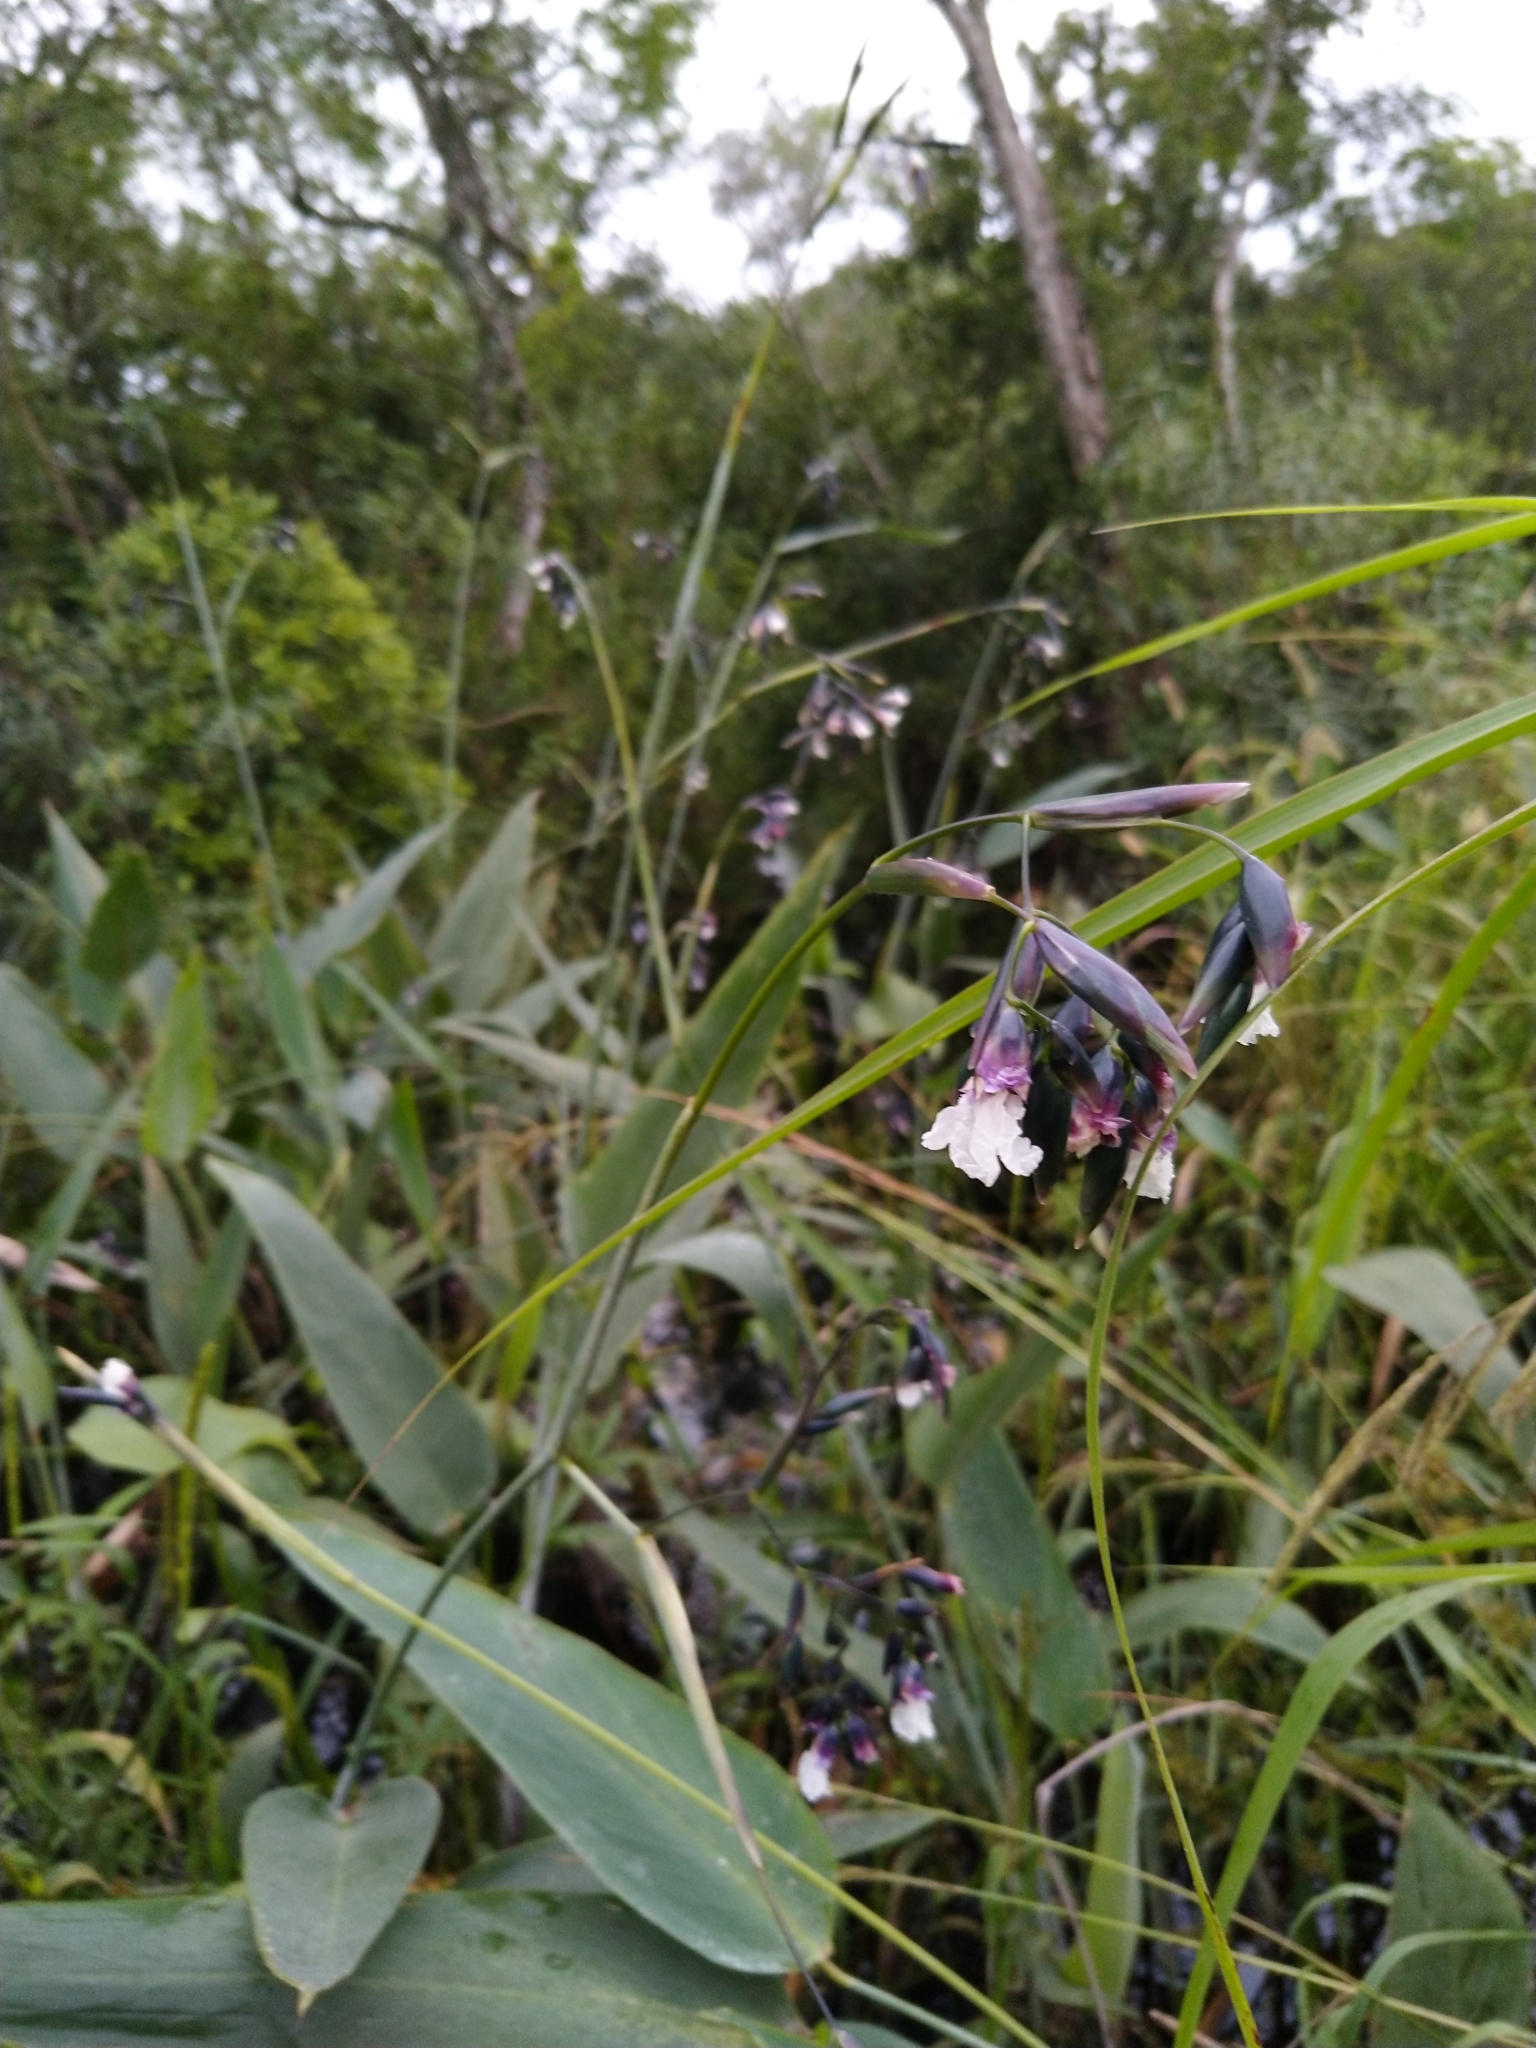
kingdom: Plantae
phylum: Tracheophyta
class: Liliopsida
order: Zingiberales
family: Marantaceae
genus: Thalia
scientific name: Thalia geniculata
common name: Arrowroot
